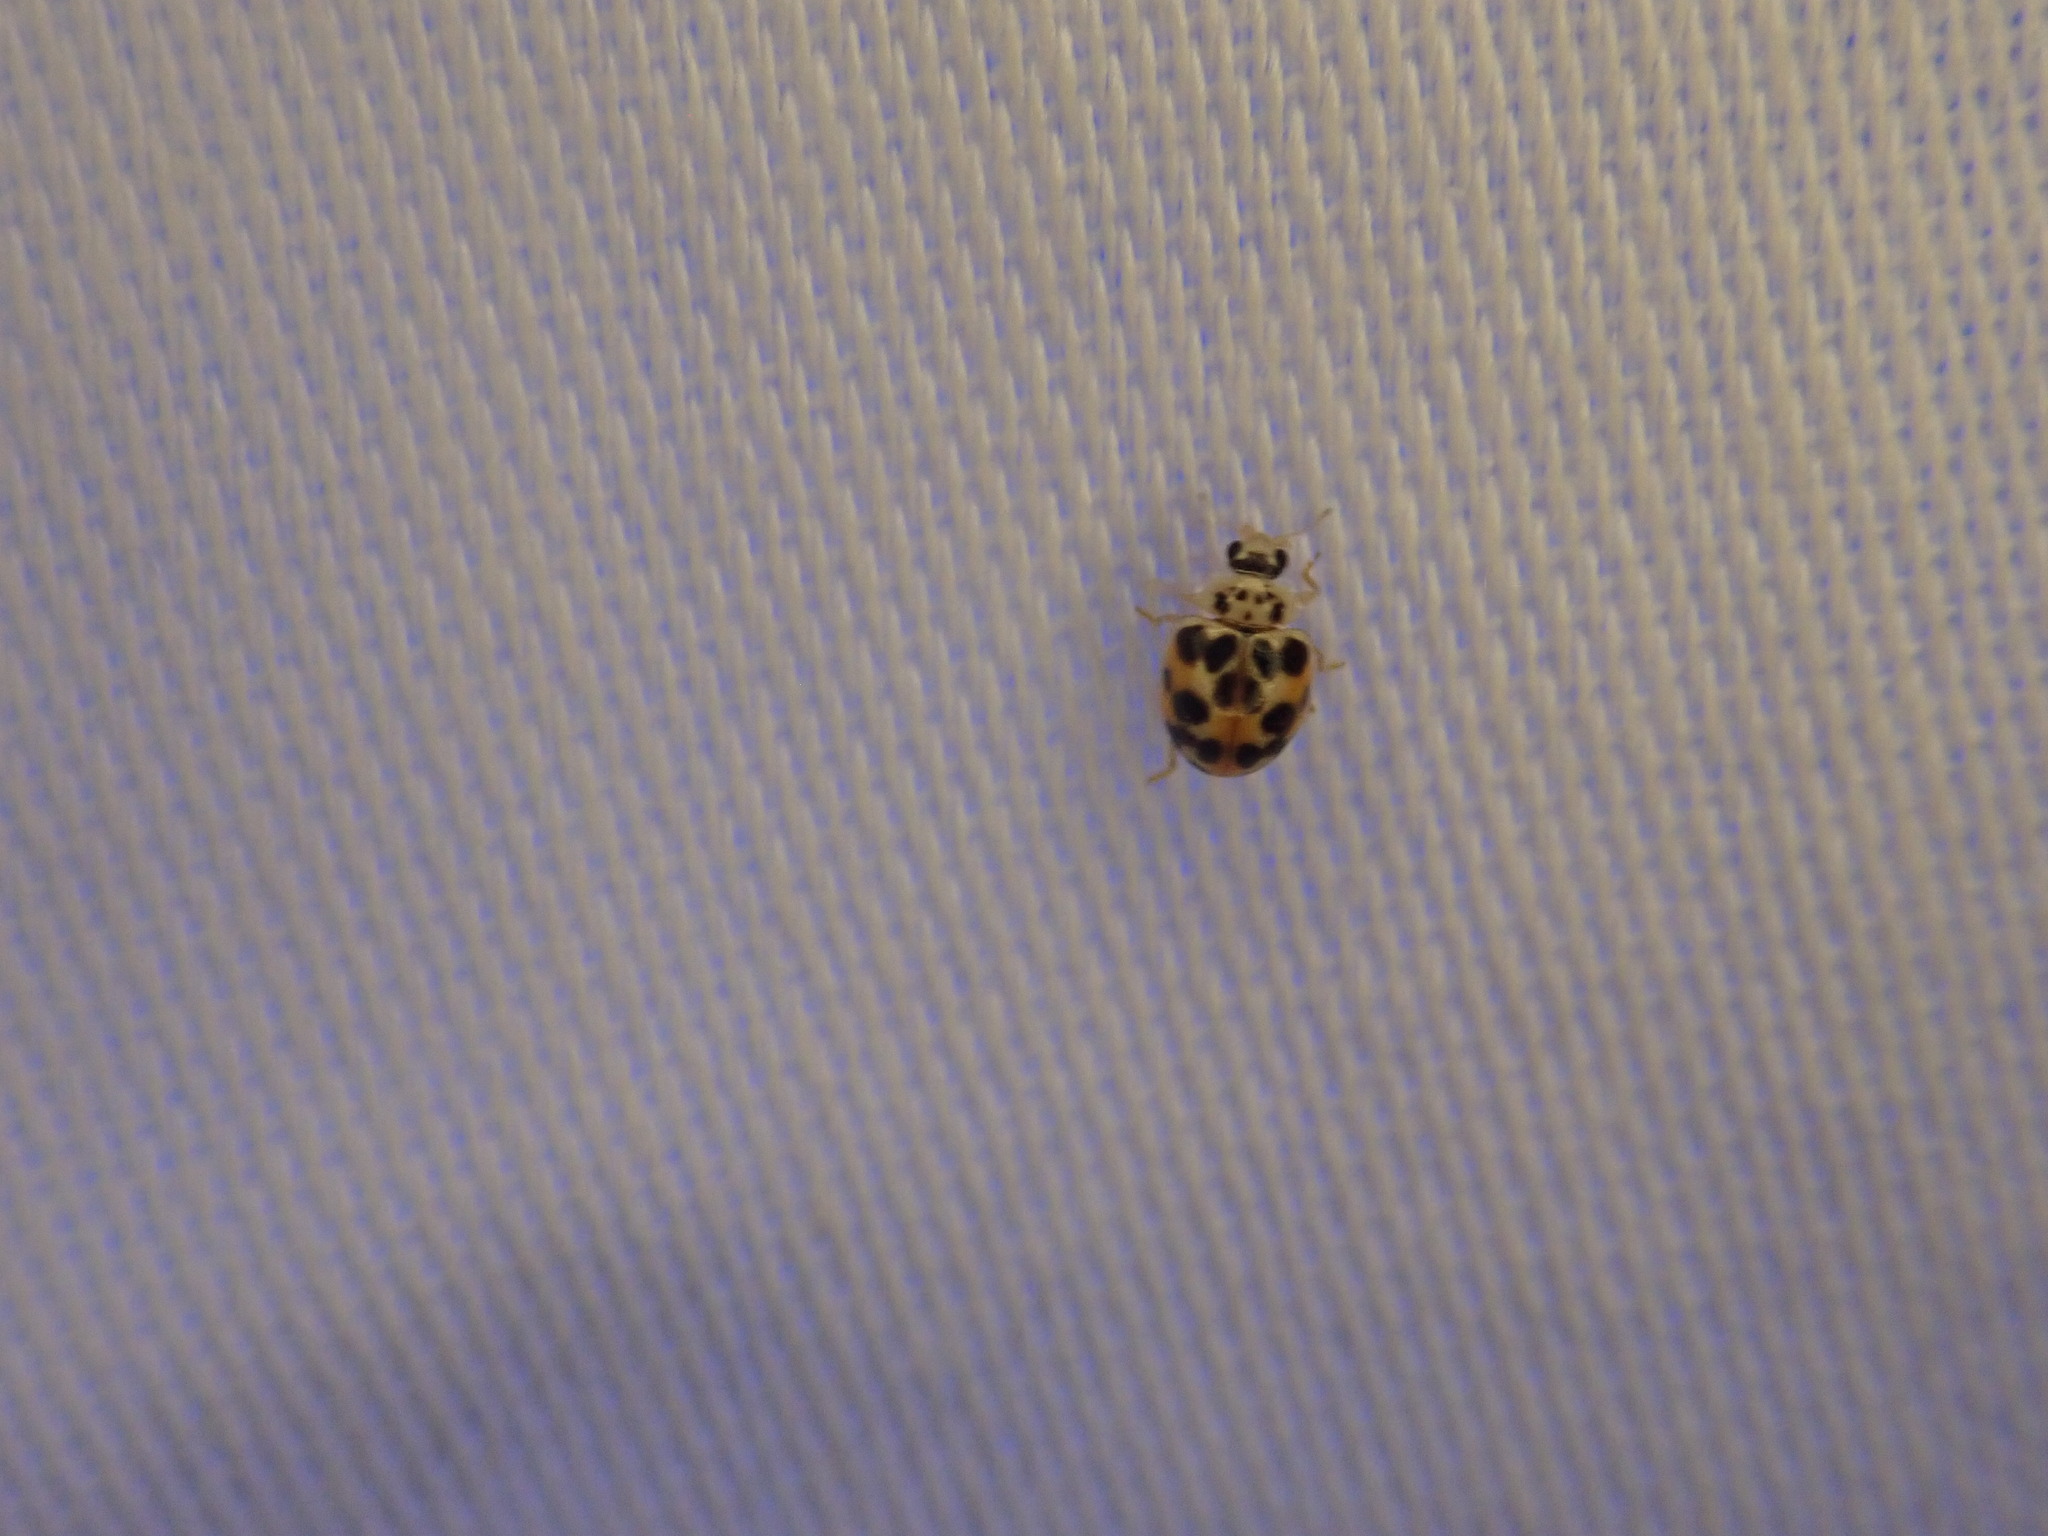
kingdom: Animalia
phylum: Arthropoda
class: Insecta
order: Coleoptera
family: Coccinellidae
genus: Psyllobora
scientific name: Psyllobora vigintimaculata
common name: Ladybird beetle
